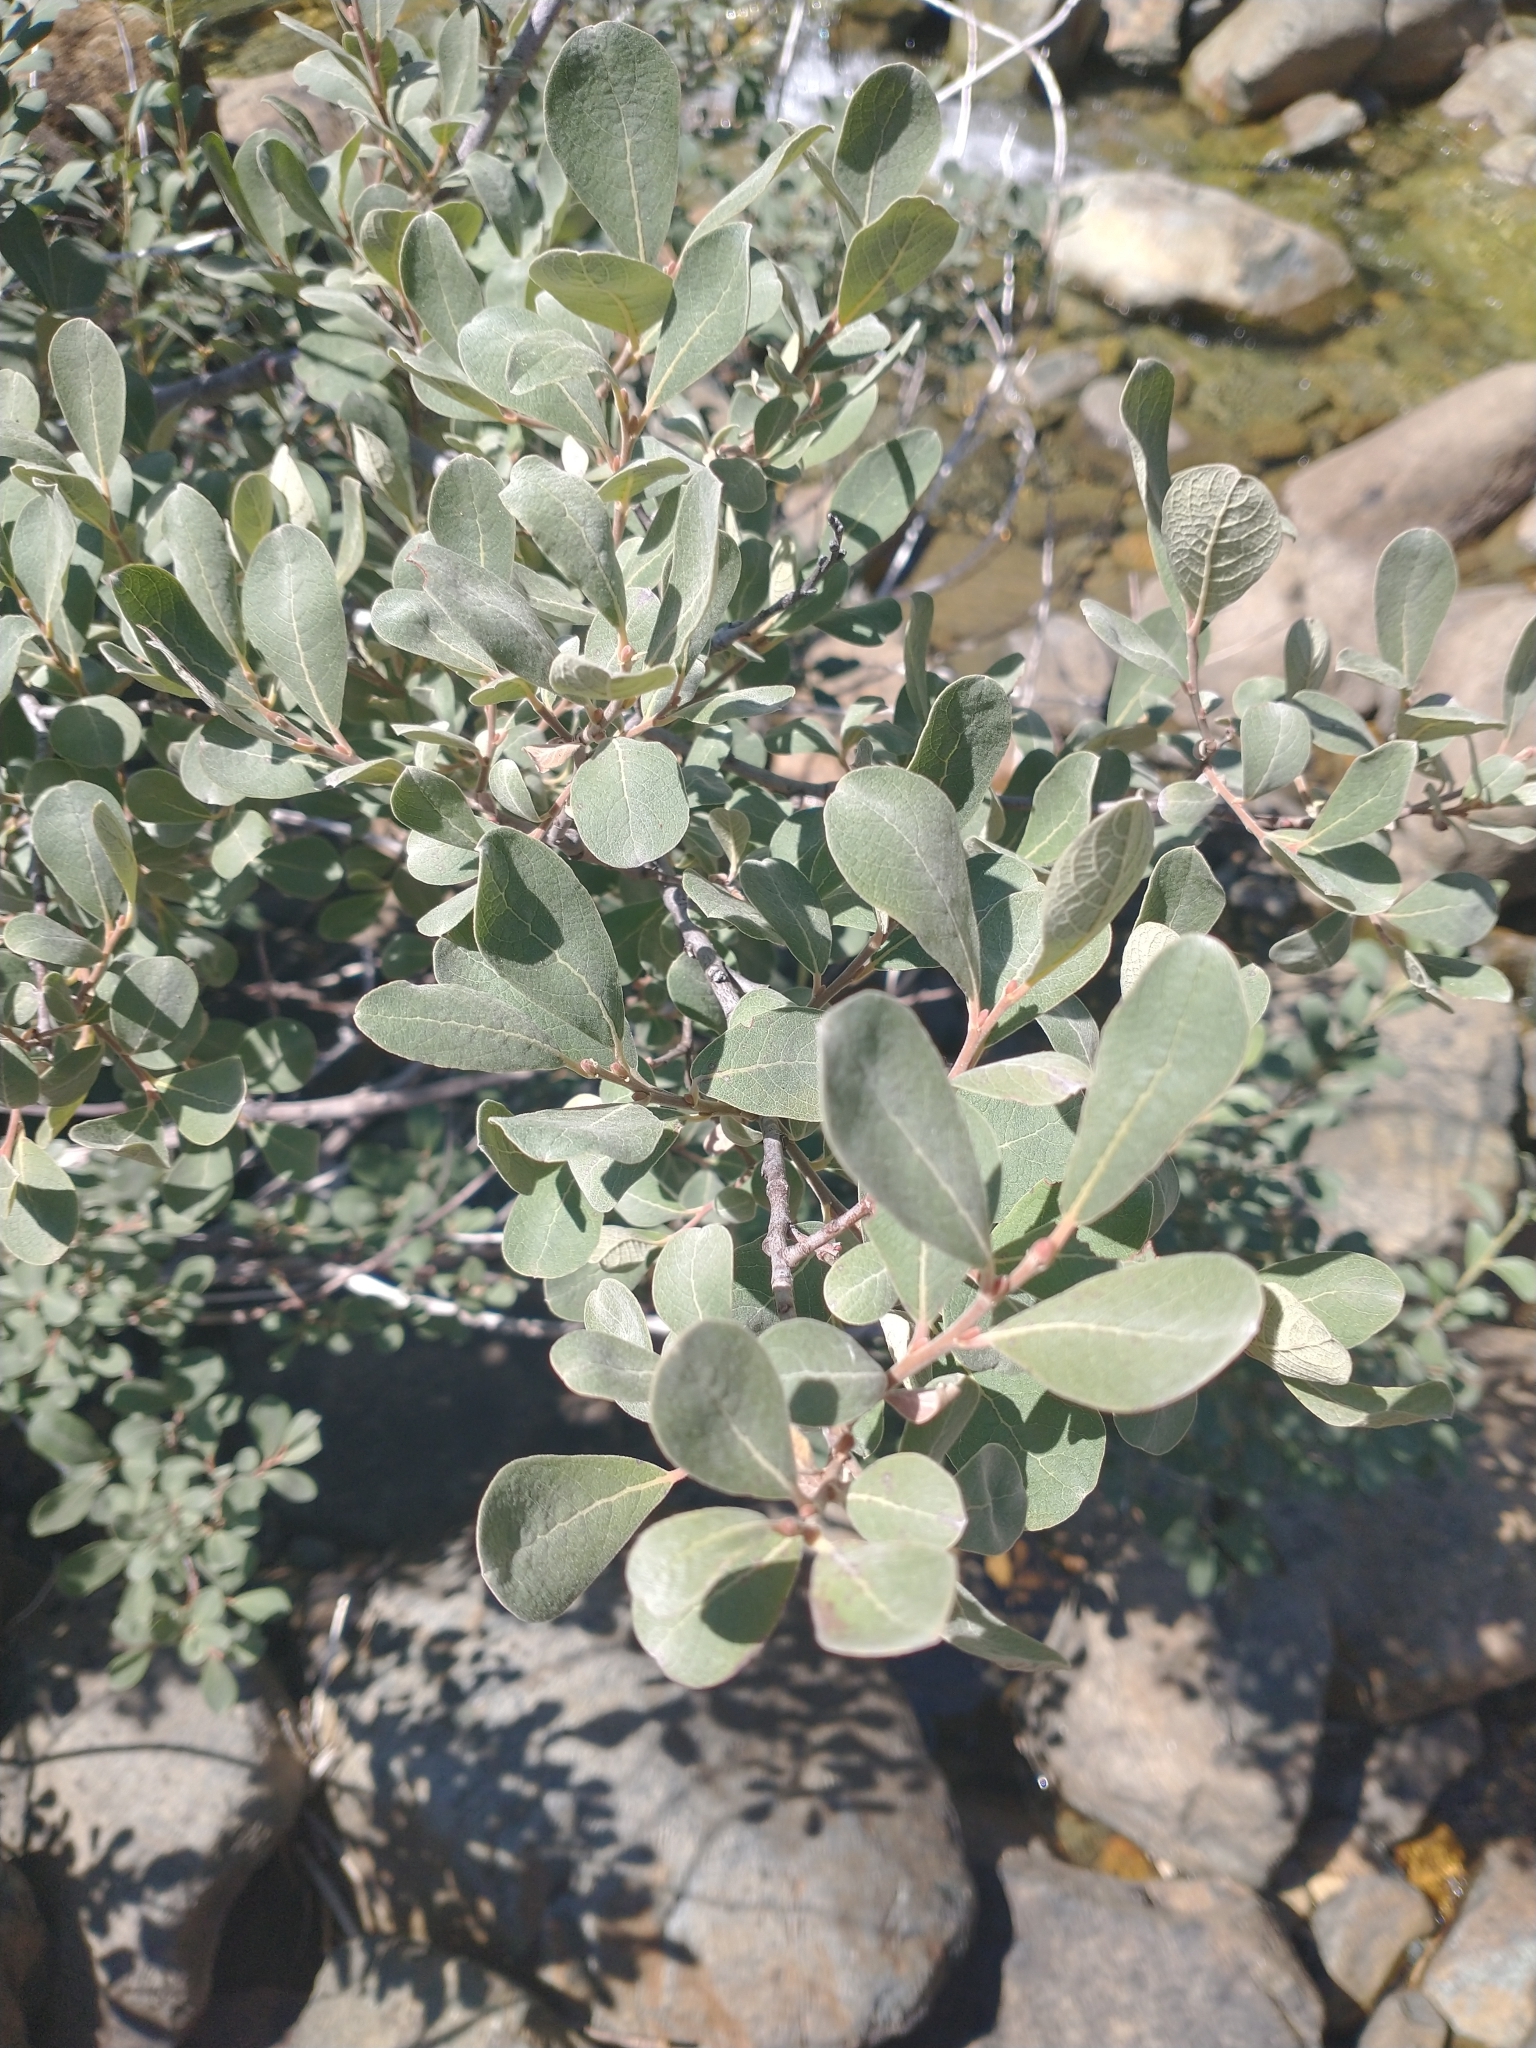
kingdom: Plantae
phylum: Tracheophyta
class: Magnoliopsida
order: Malpighiales
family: Salicaceae
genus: Salix
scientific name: Salix delnortensis
